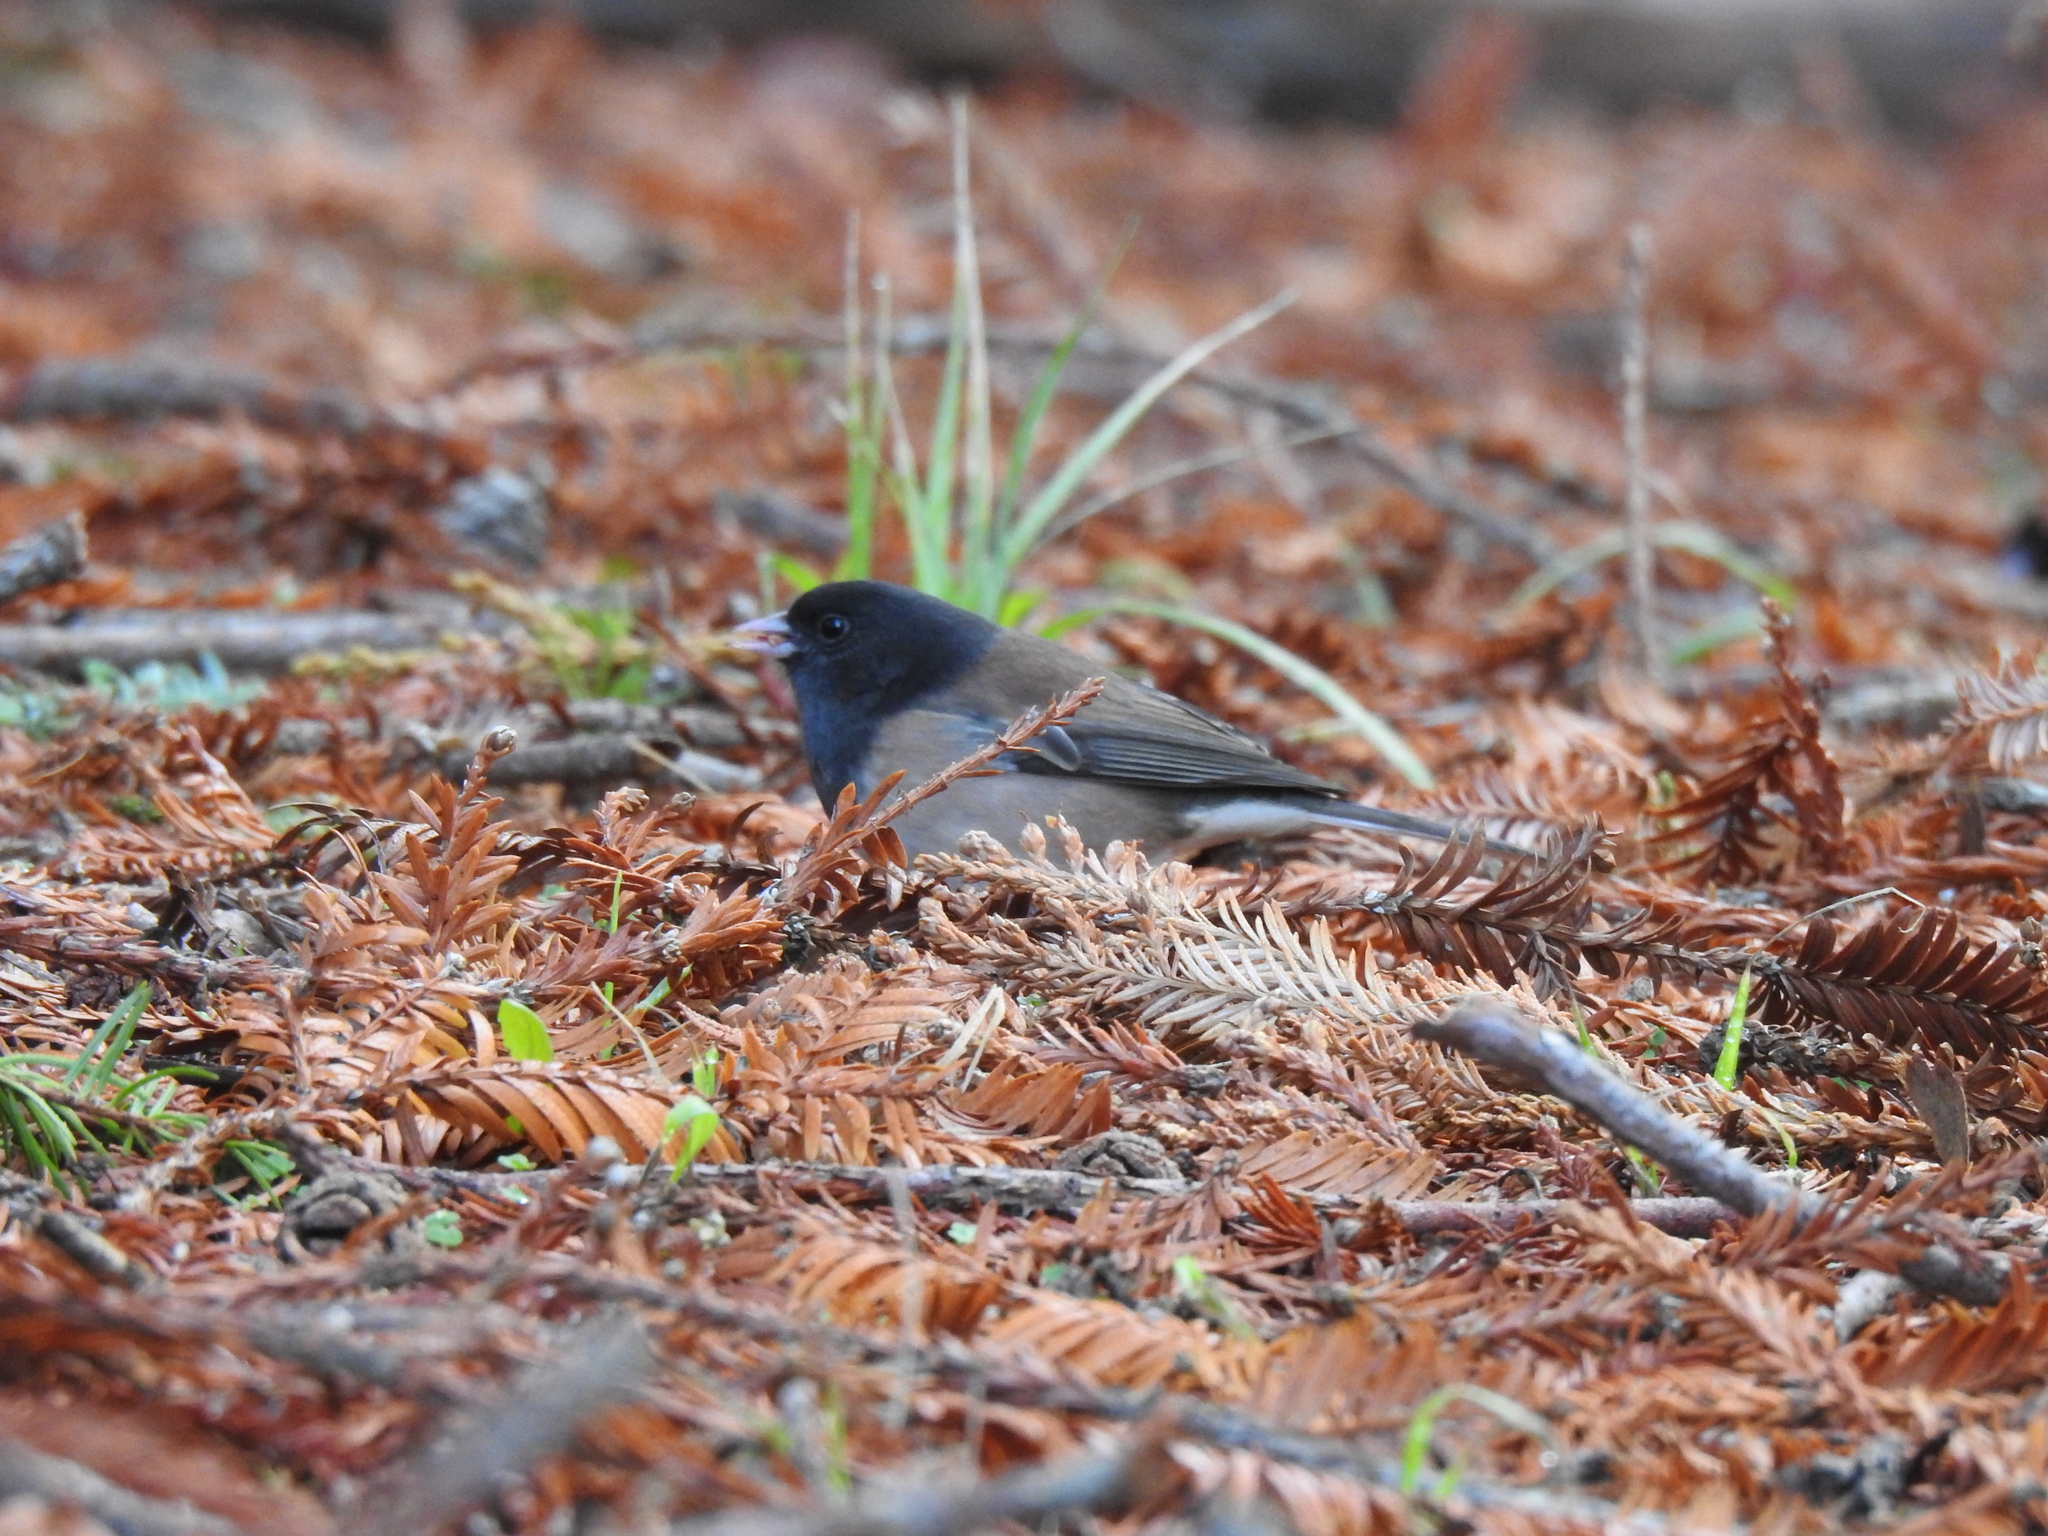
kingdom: Animalia
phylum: Chordata
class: Aves
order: Passeriformes
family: Passerellidae
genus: Junco
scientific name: Junco hyemalis
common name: Dark-eyed junco
